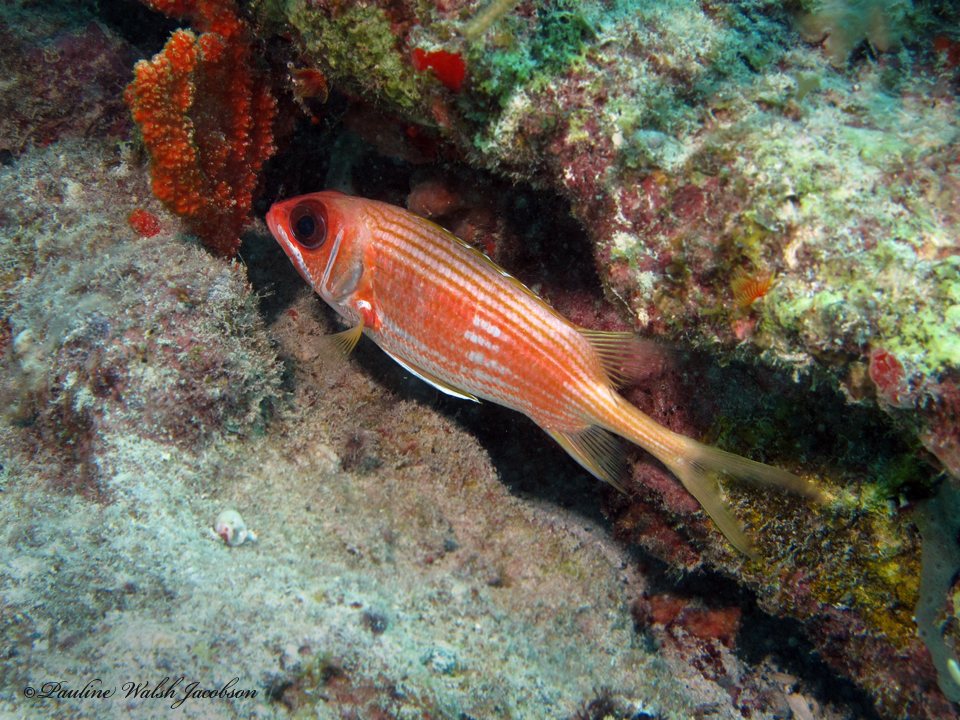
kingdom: Animalia
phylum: Chordata
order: Beryciformes
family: Holocentridae
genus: Holocentrus
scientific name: Holocentrus rufus
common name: Longspine squirrelfish
